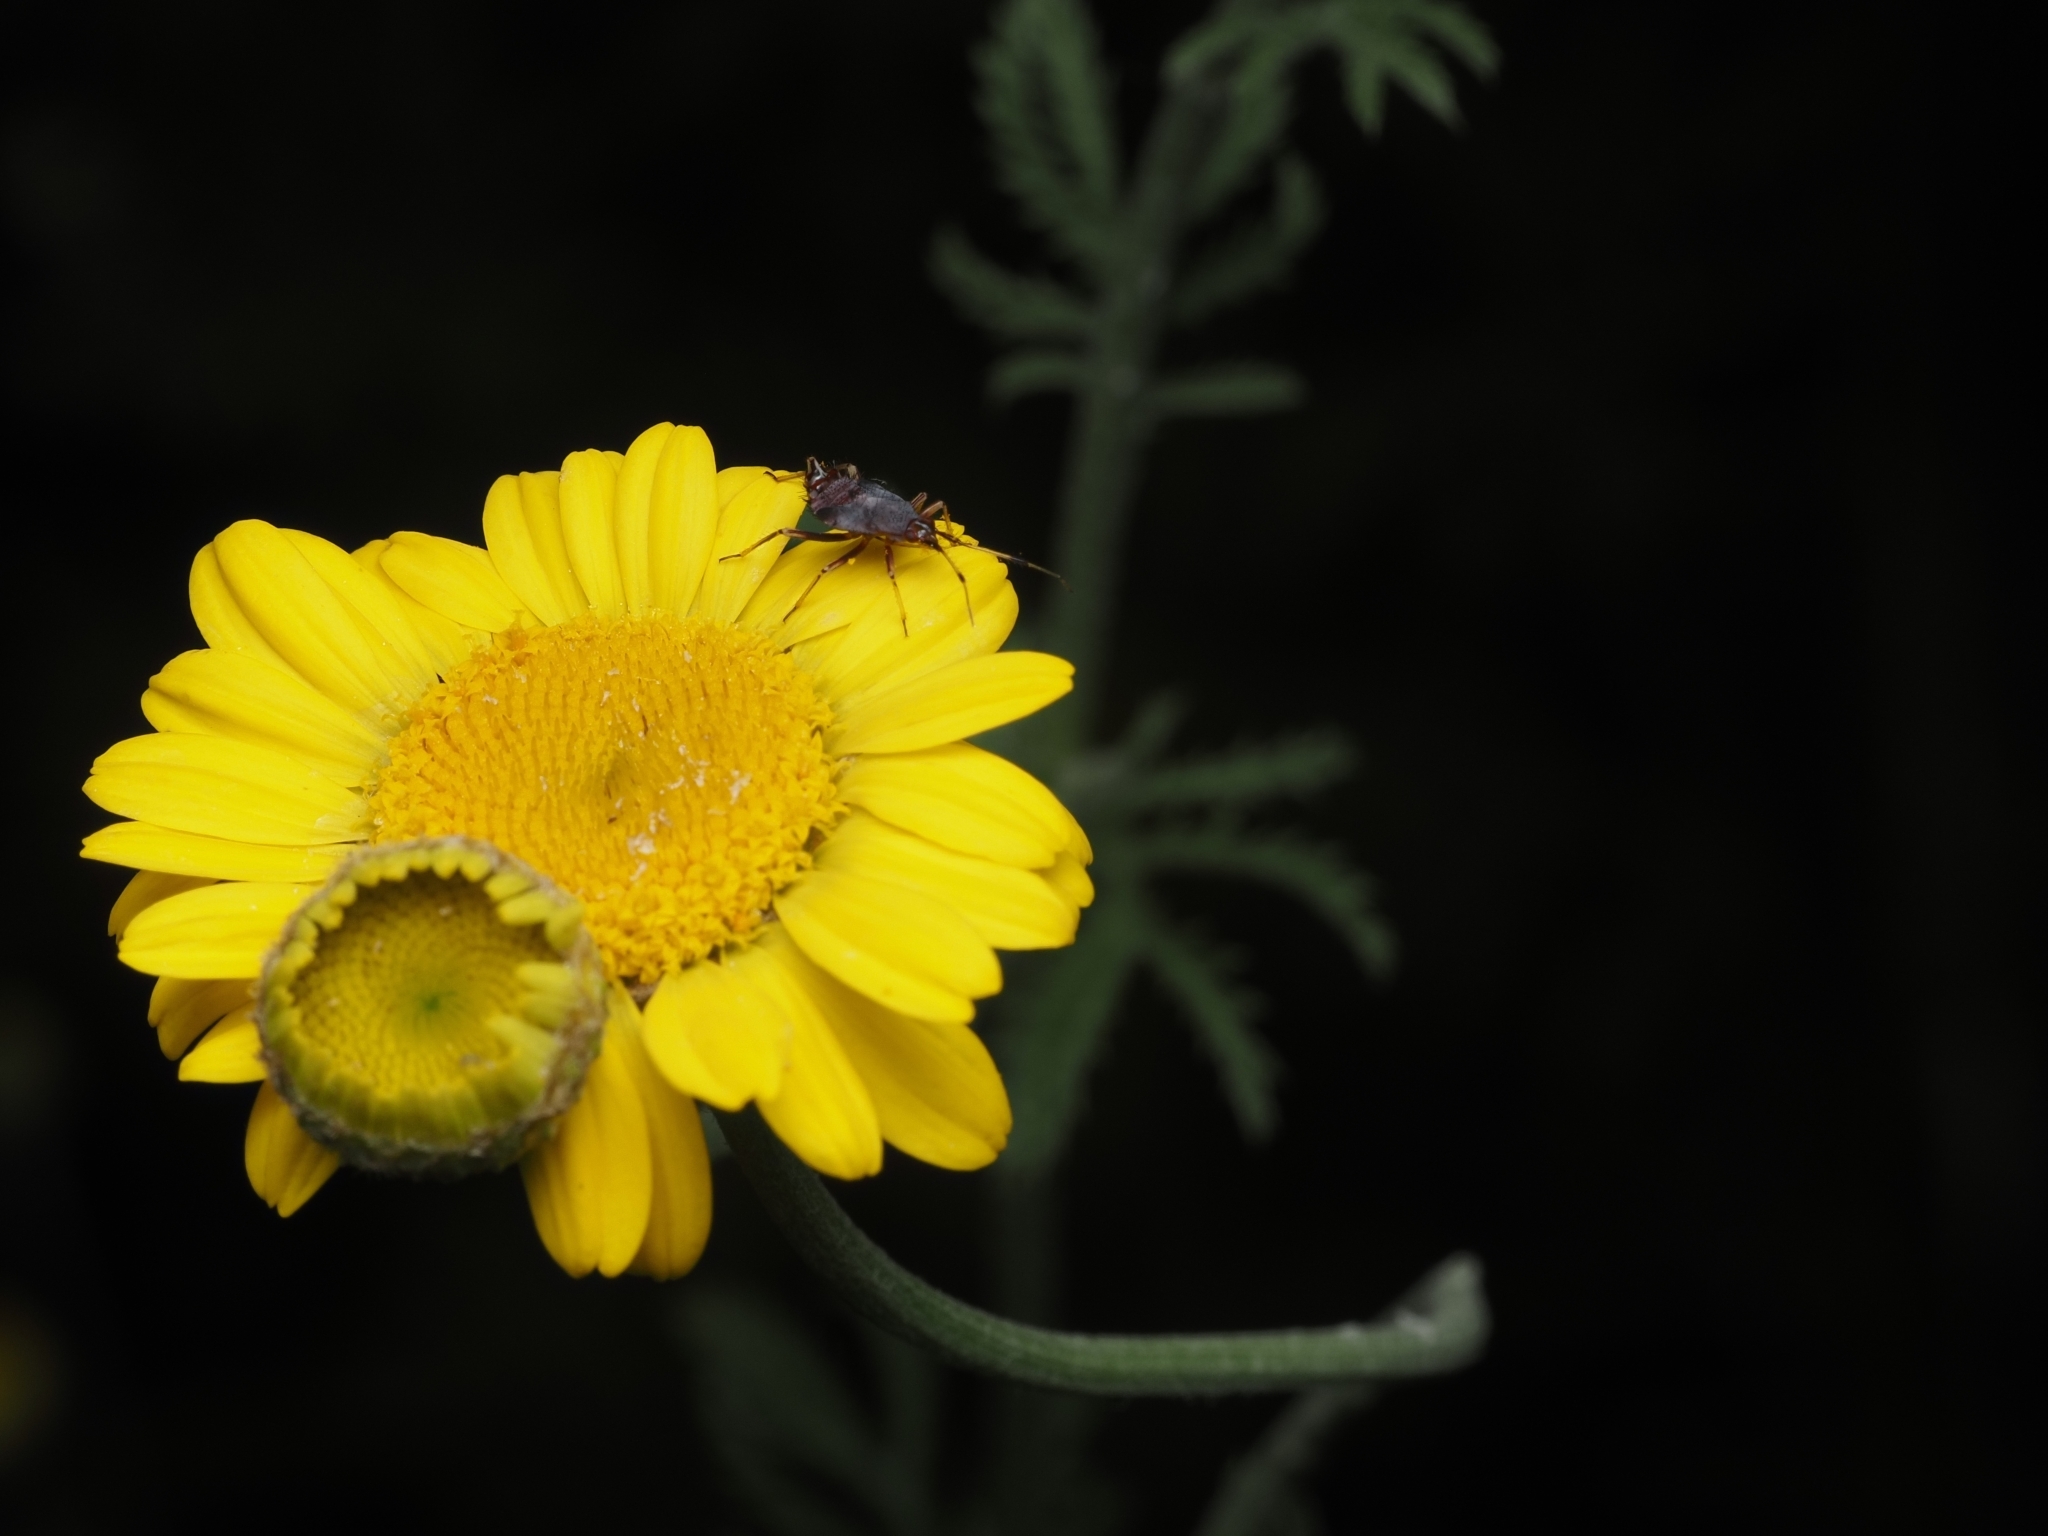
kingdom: Animalia
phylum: Arthropoda
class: Insecta
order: Hemiptera
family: Miridae
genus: Deraeocoris
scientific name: Deraeocoris ruber
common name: Plant bug
